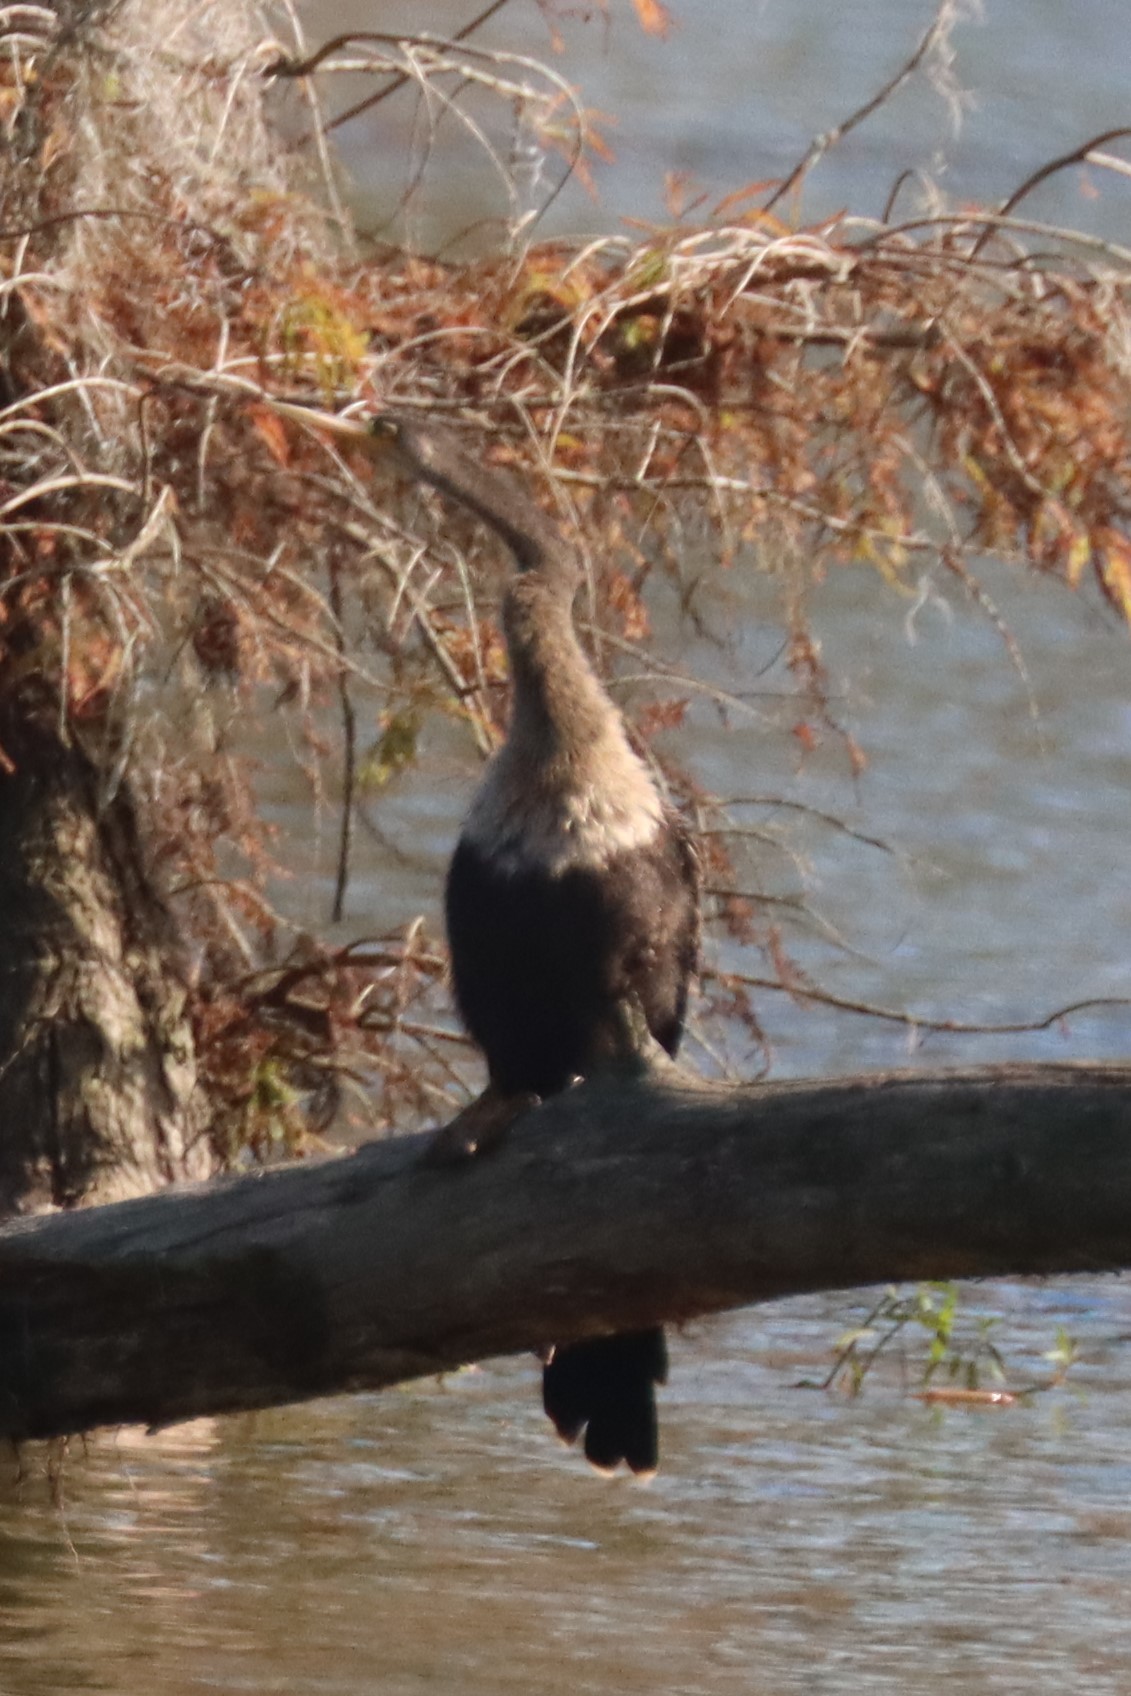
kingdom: Animalia
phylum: Chordata
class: Aves
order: Suliformes
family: Anhingidae
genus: Anhinga
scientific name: Anhinga anhinga
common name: Anhinga
